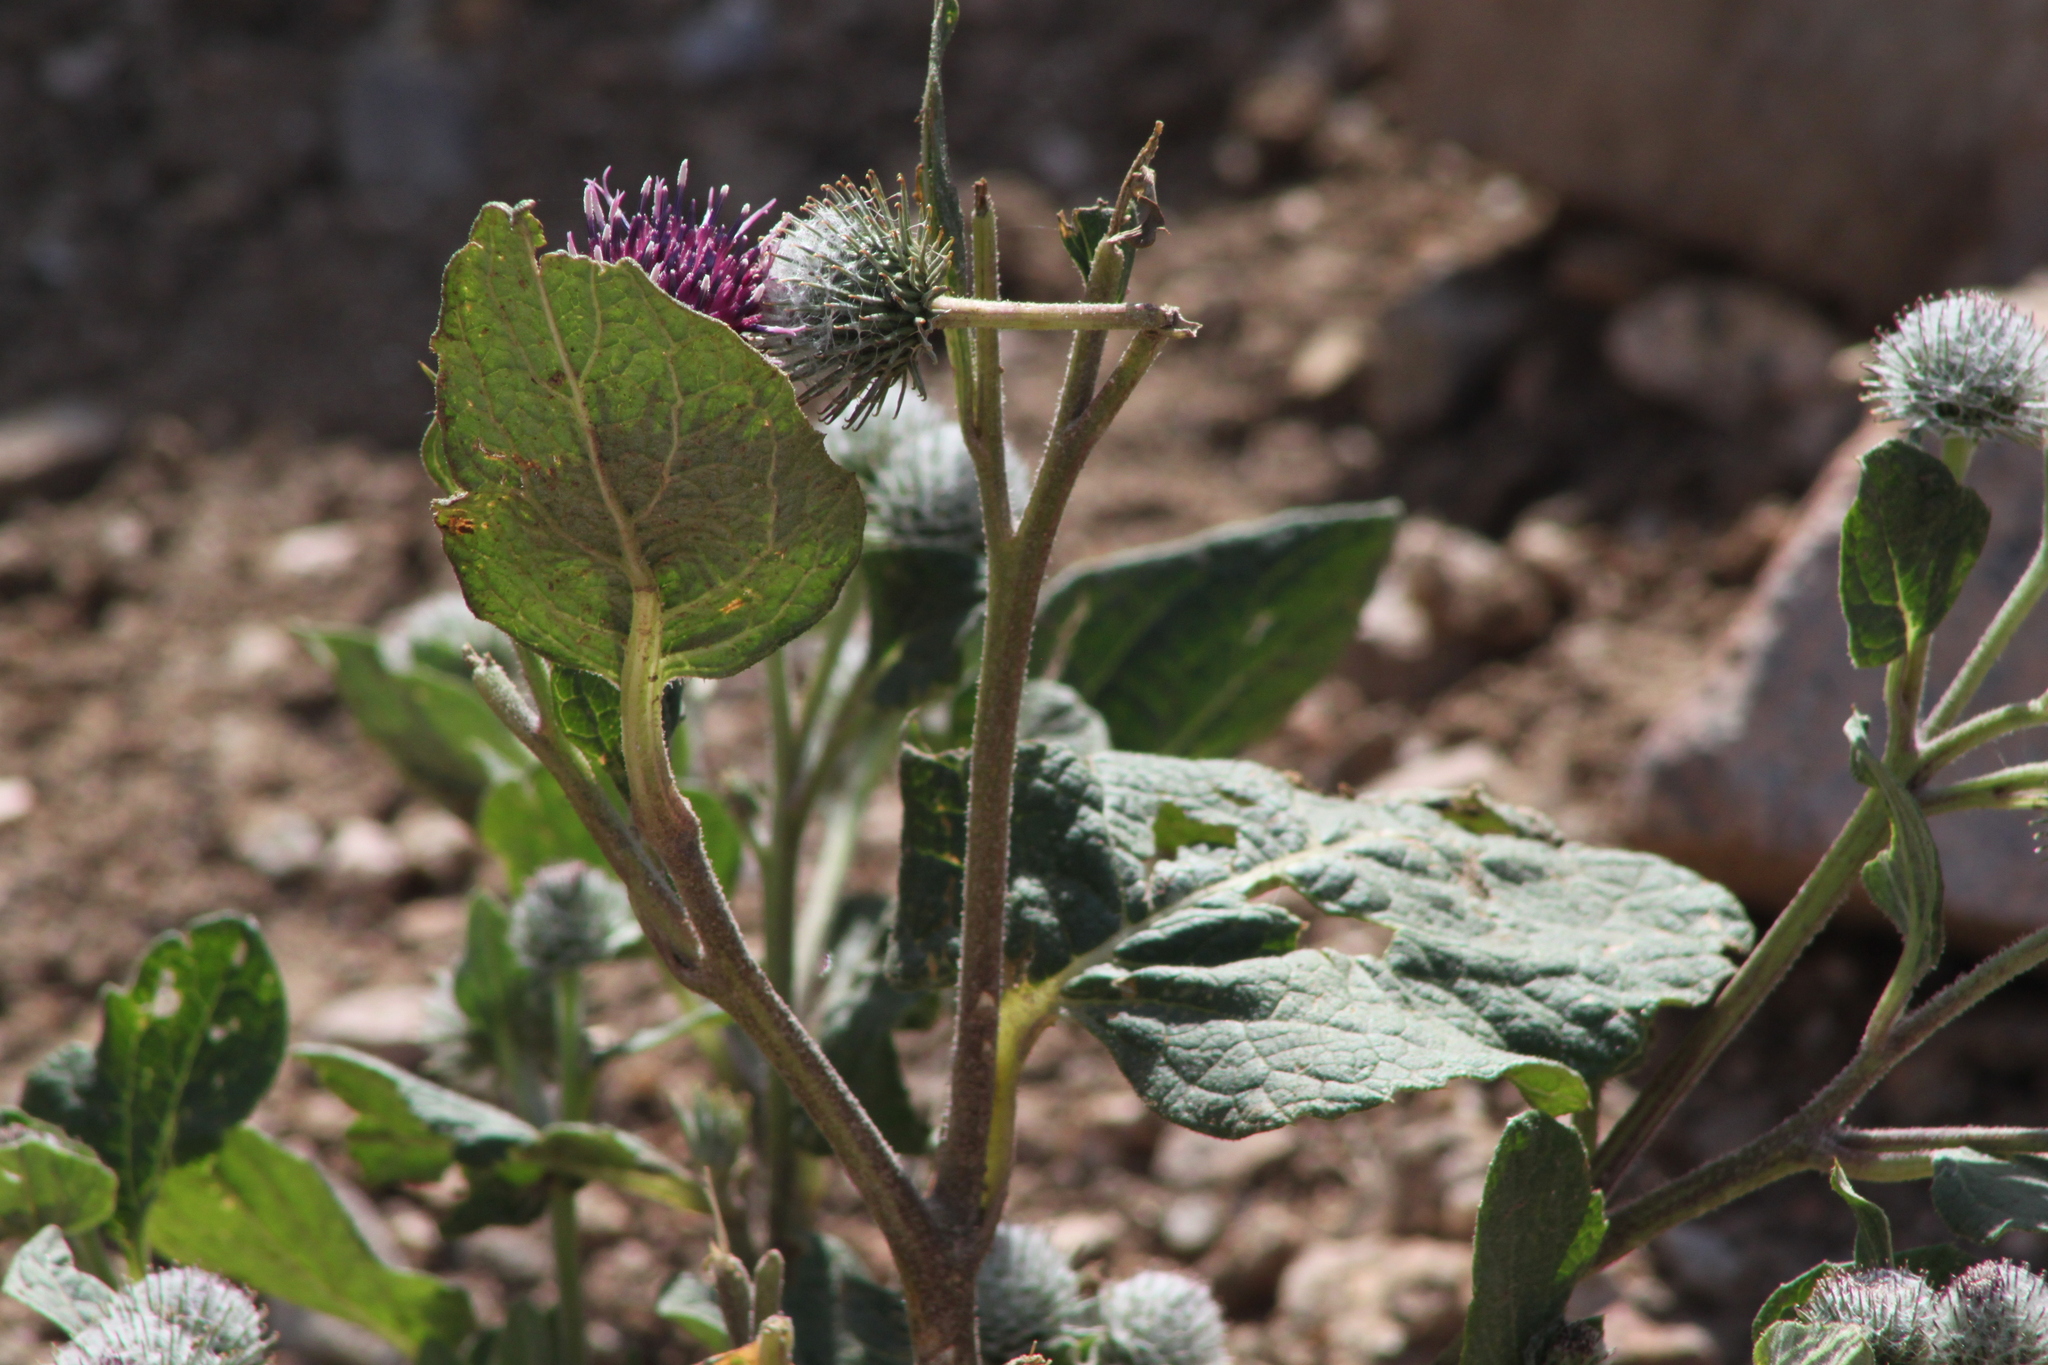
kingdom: Plantae
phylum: Tracheophyta
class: Magnoliopsida
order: Asterales
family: Asteraceae
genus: Arctium
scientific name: Arctium tomentosum
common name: Woolly burdock
